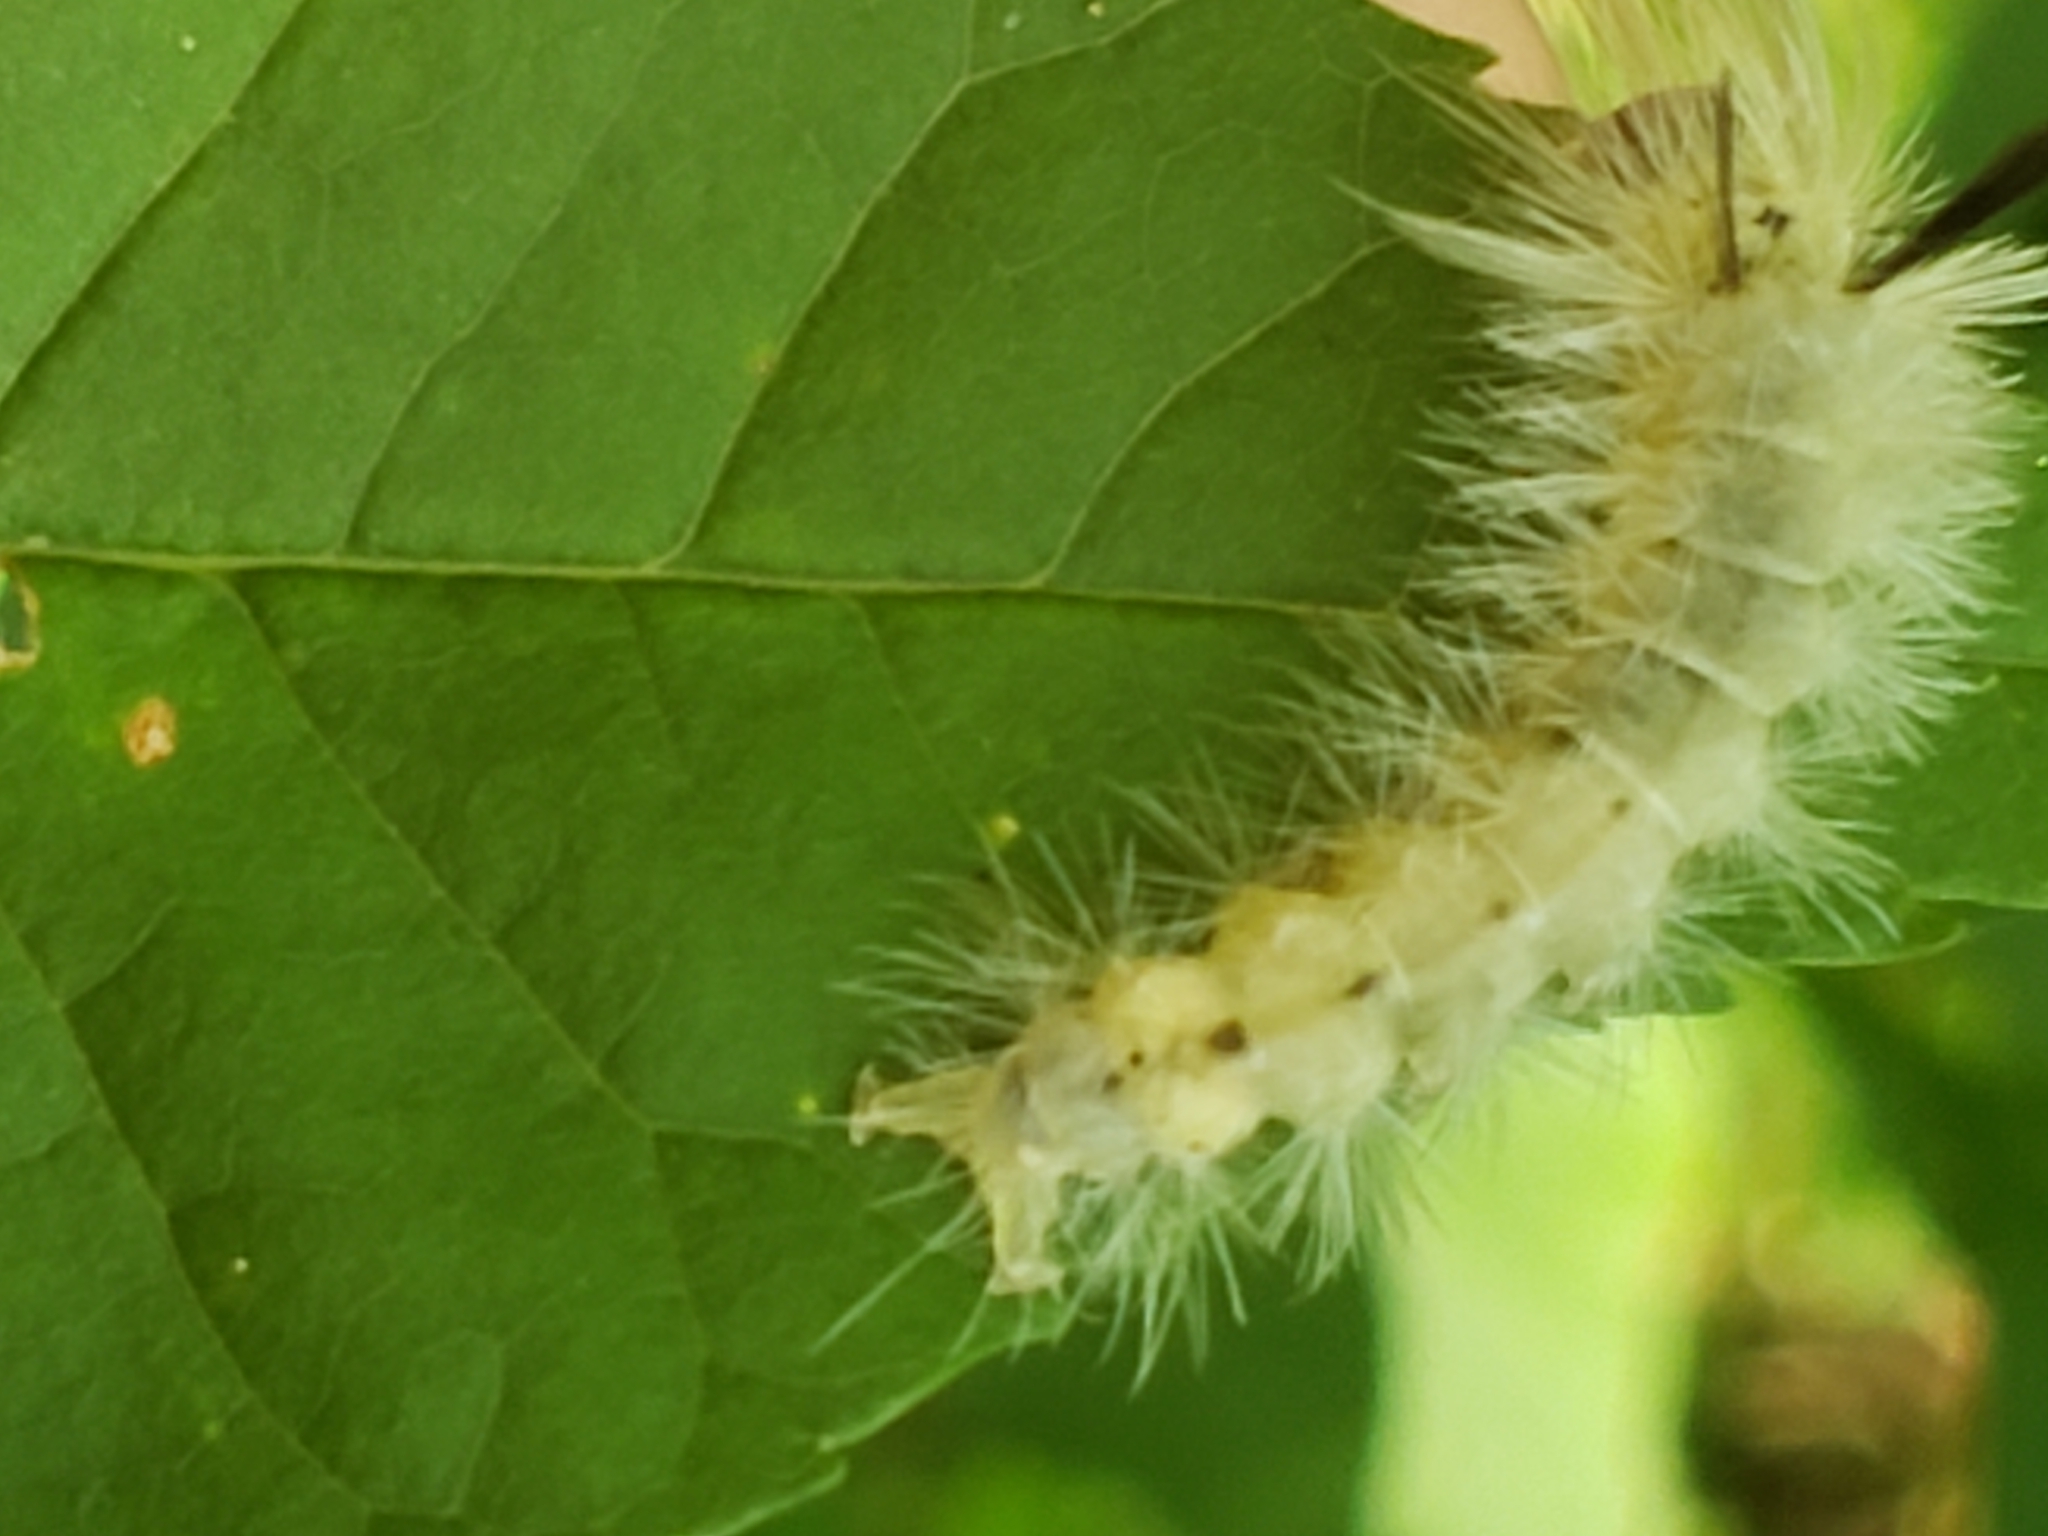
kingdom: Animalia
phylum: Arthropoda
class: Insecta
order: Lepidoptera
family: Erebidae
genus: Halysidota
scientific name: Halysidota tessellaris
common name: Banded tussock moth
